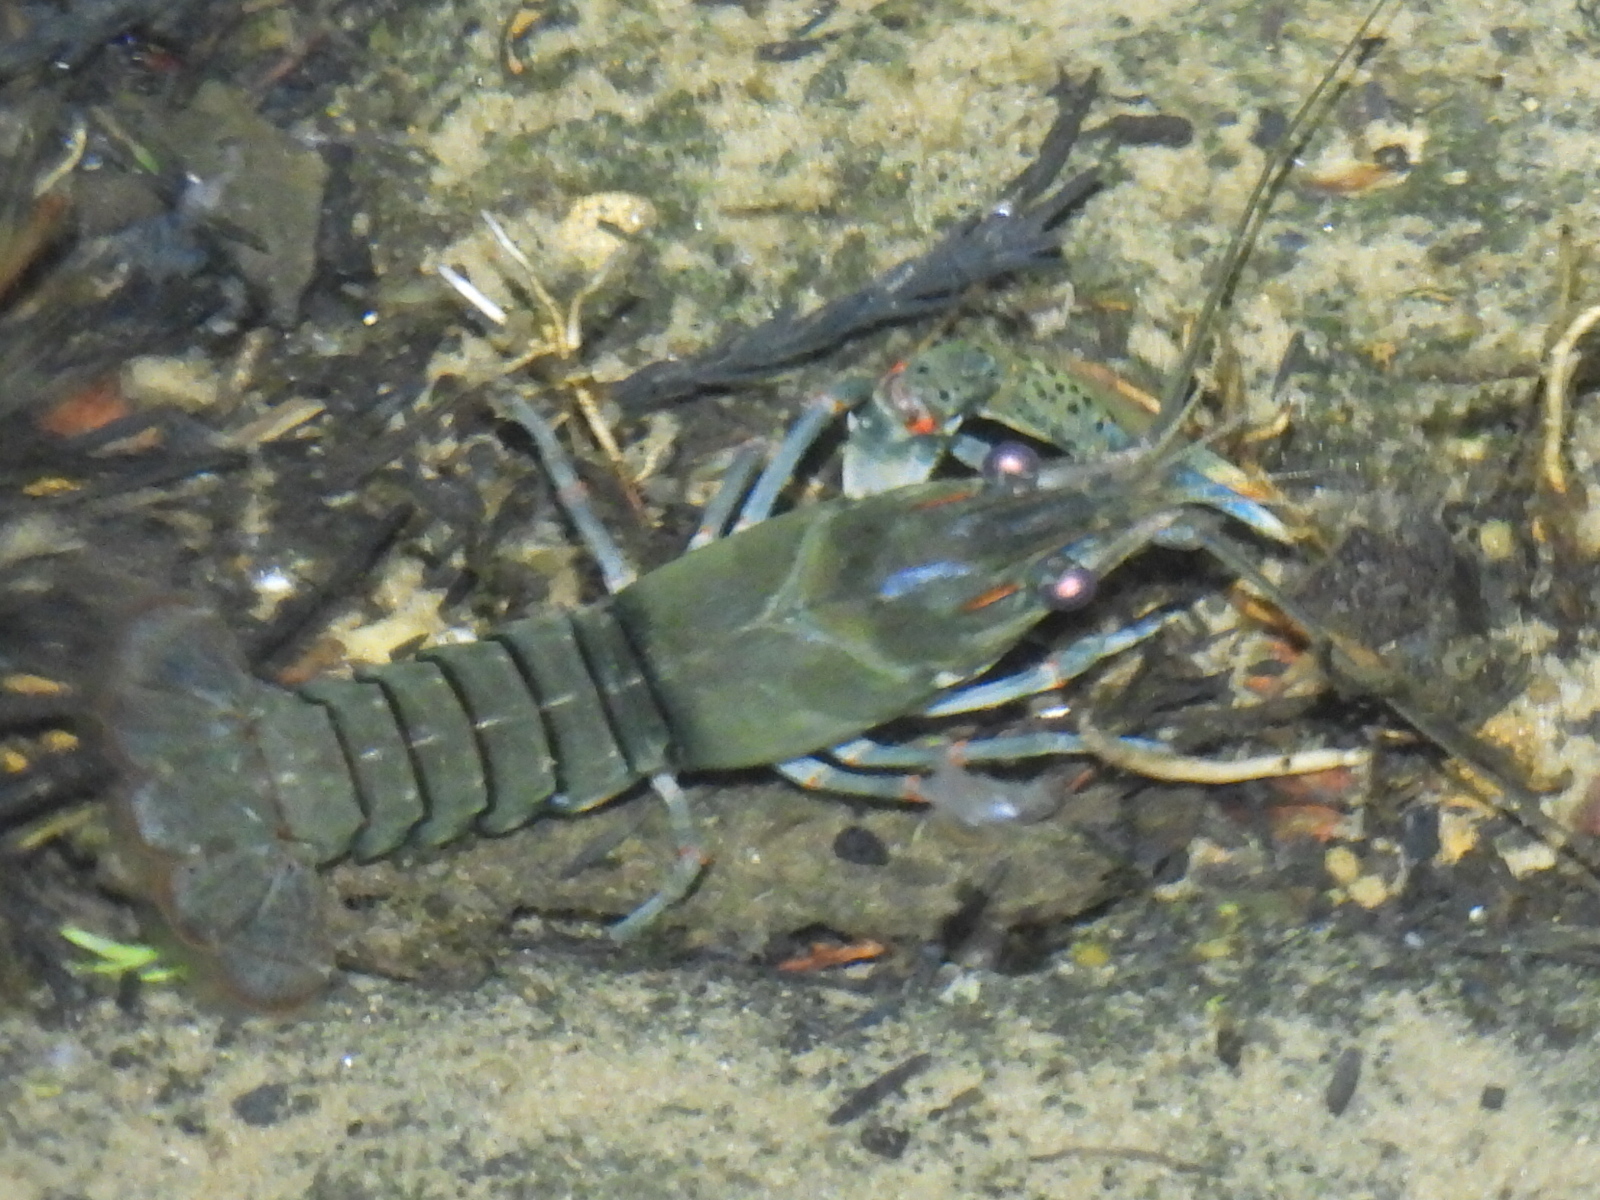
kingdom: Animalia
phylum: Arthropoda
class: Malacostraca
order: Decapoda
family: Cambaridae
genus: Faxonius
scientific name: Faxonius maletae
